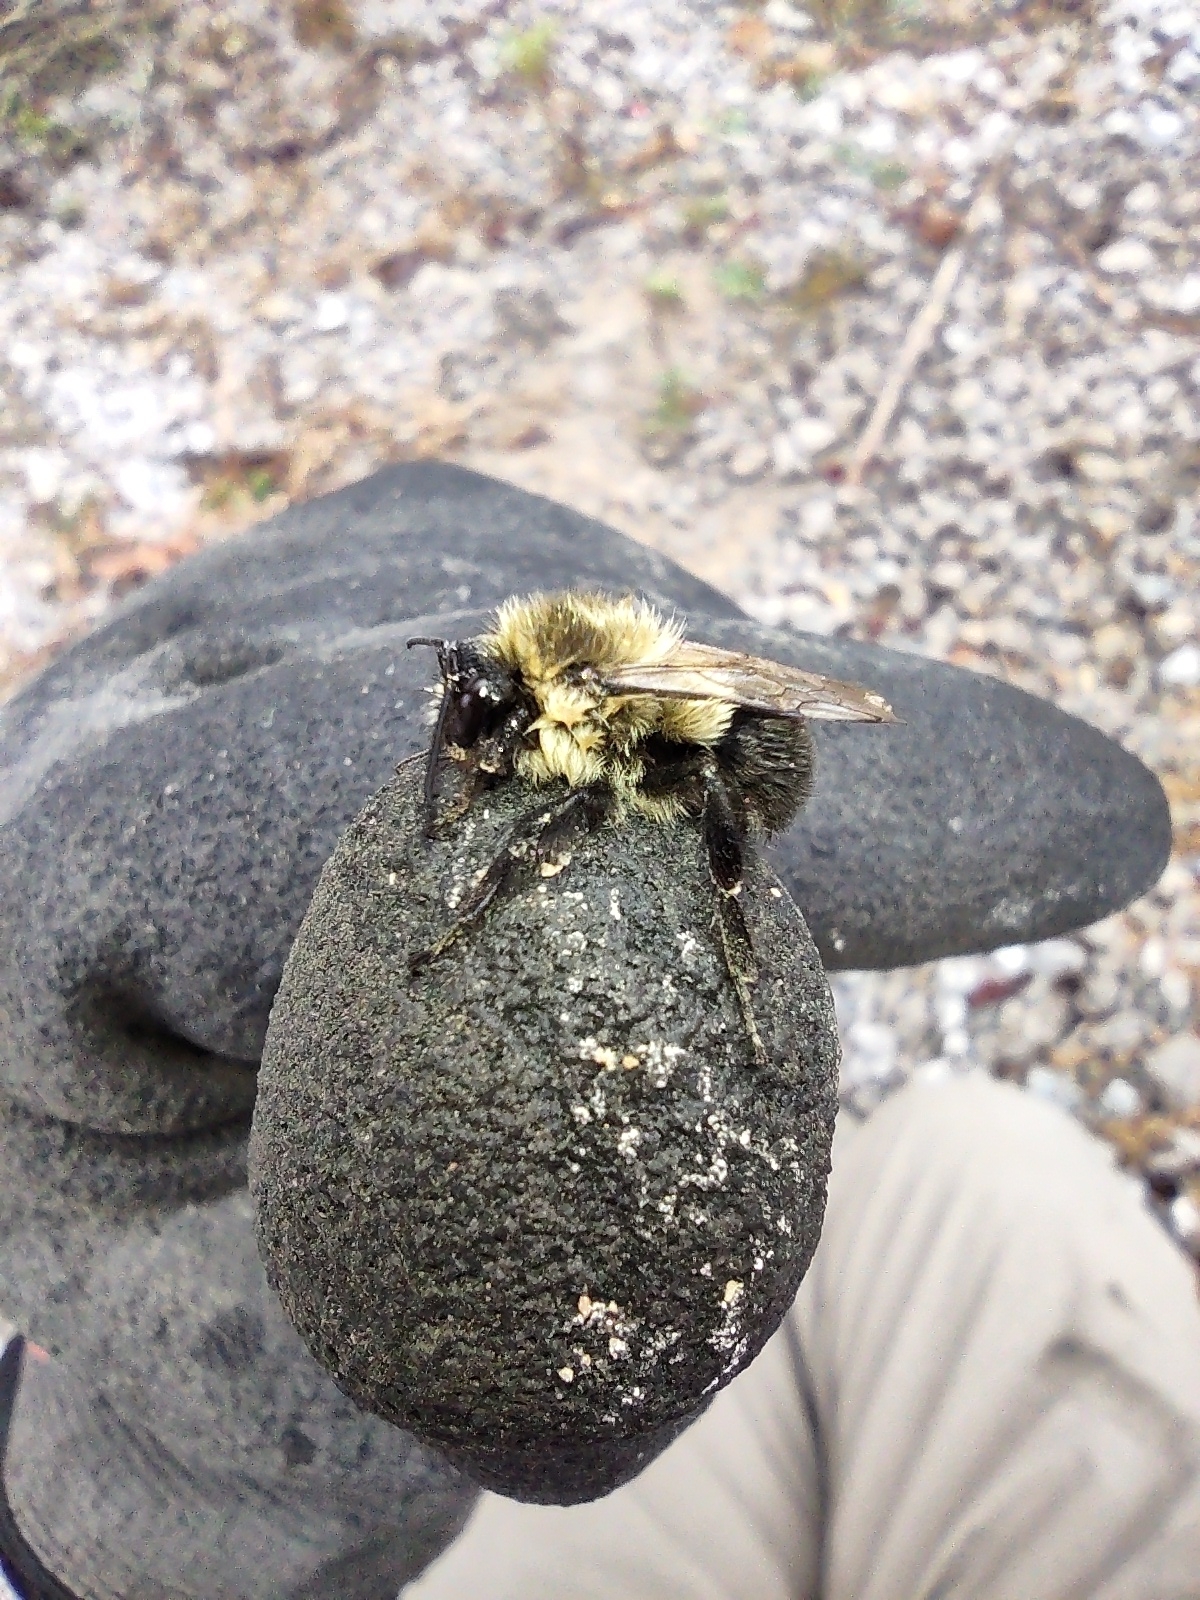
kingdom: Animalia
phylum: Arthropoda
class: Insecta
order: Hymenoptera
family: Apidae
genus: Bombus
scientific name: Bombus impatiens
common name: Common eastern bumble bee
